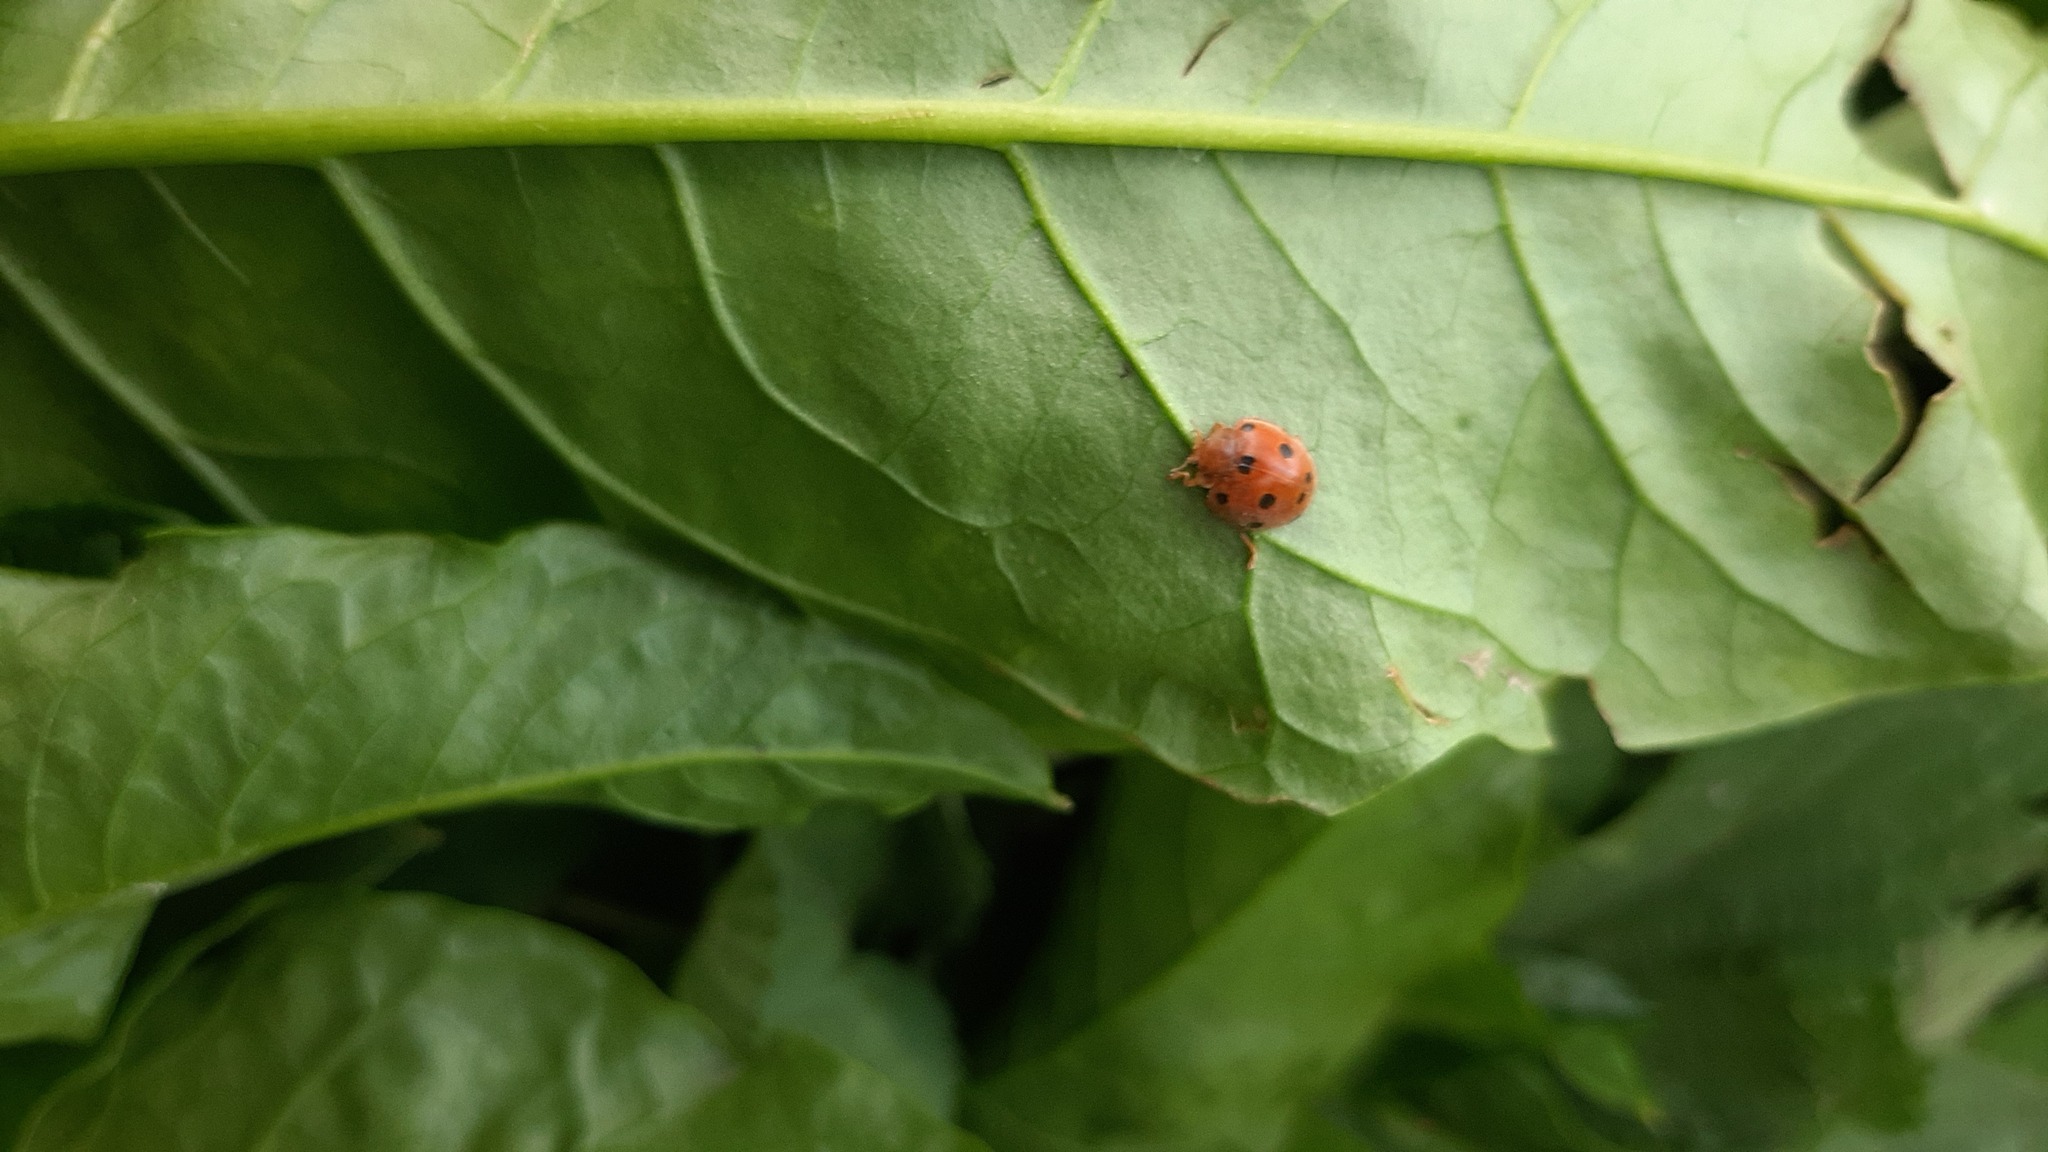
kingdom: Animalia
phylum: Arthropoda
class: Insecta
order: Coleoptera
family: Coccinellidae
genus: Henosepilachna
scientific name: Henosepilachna argus
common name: Bryony ladybird
